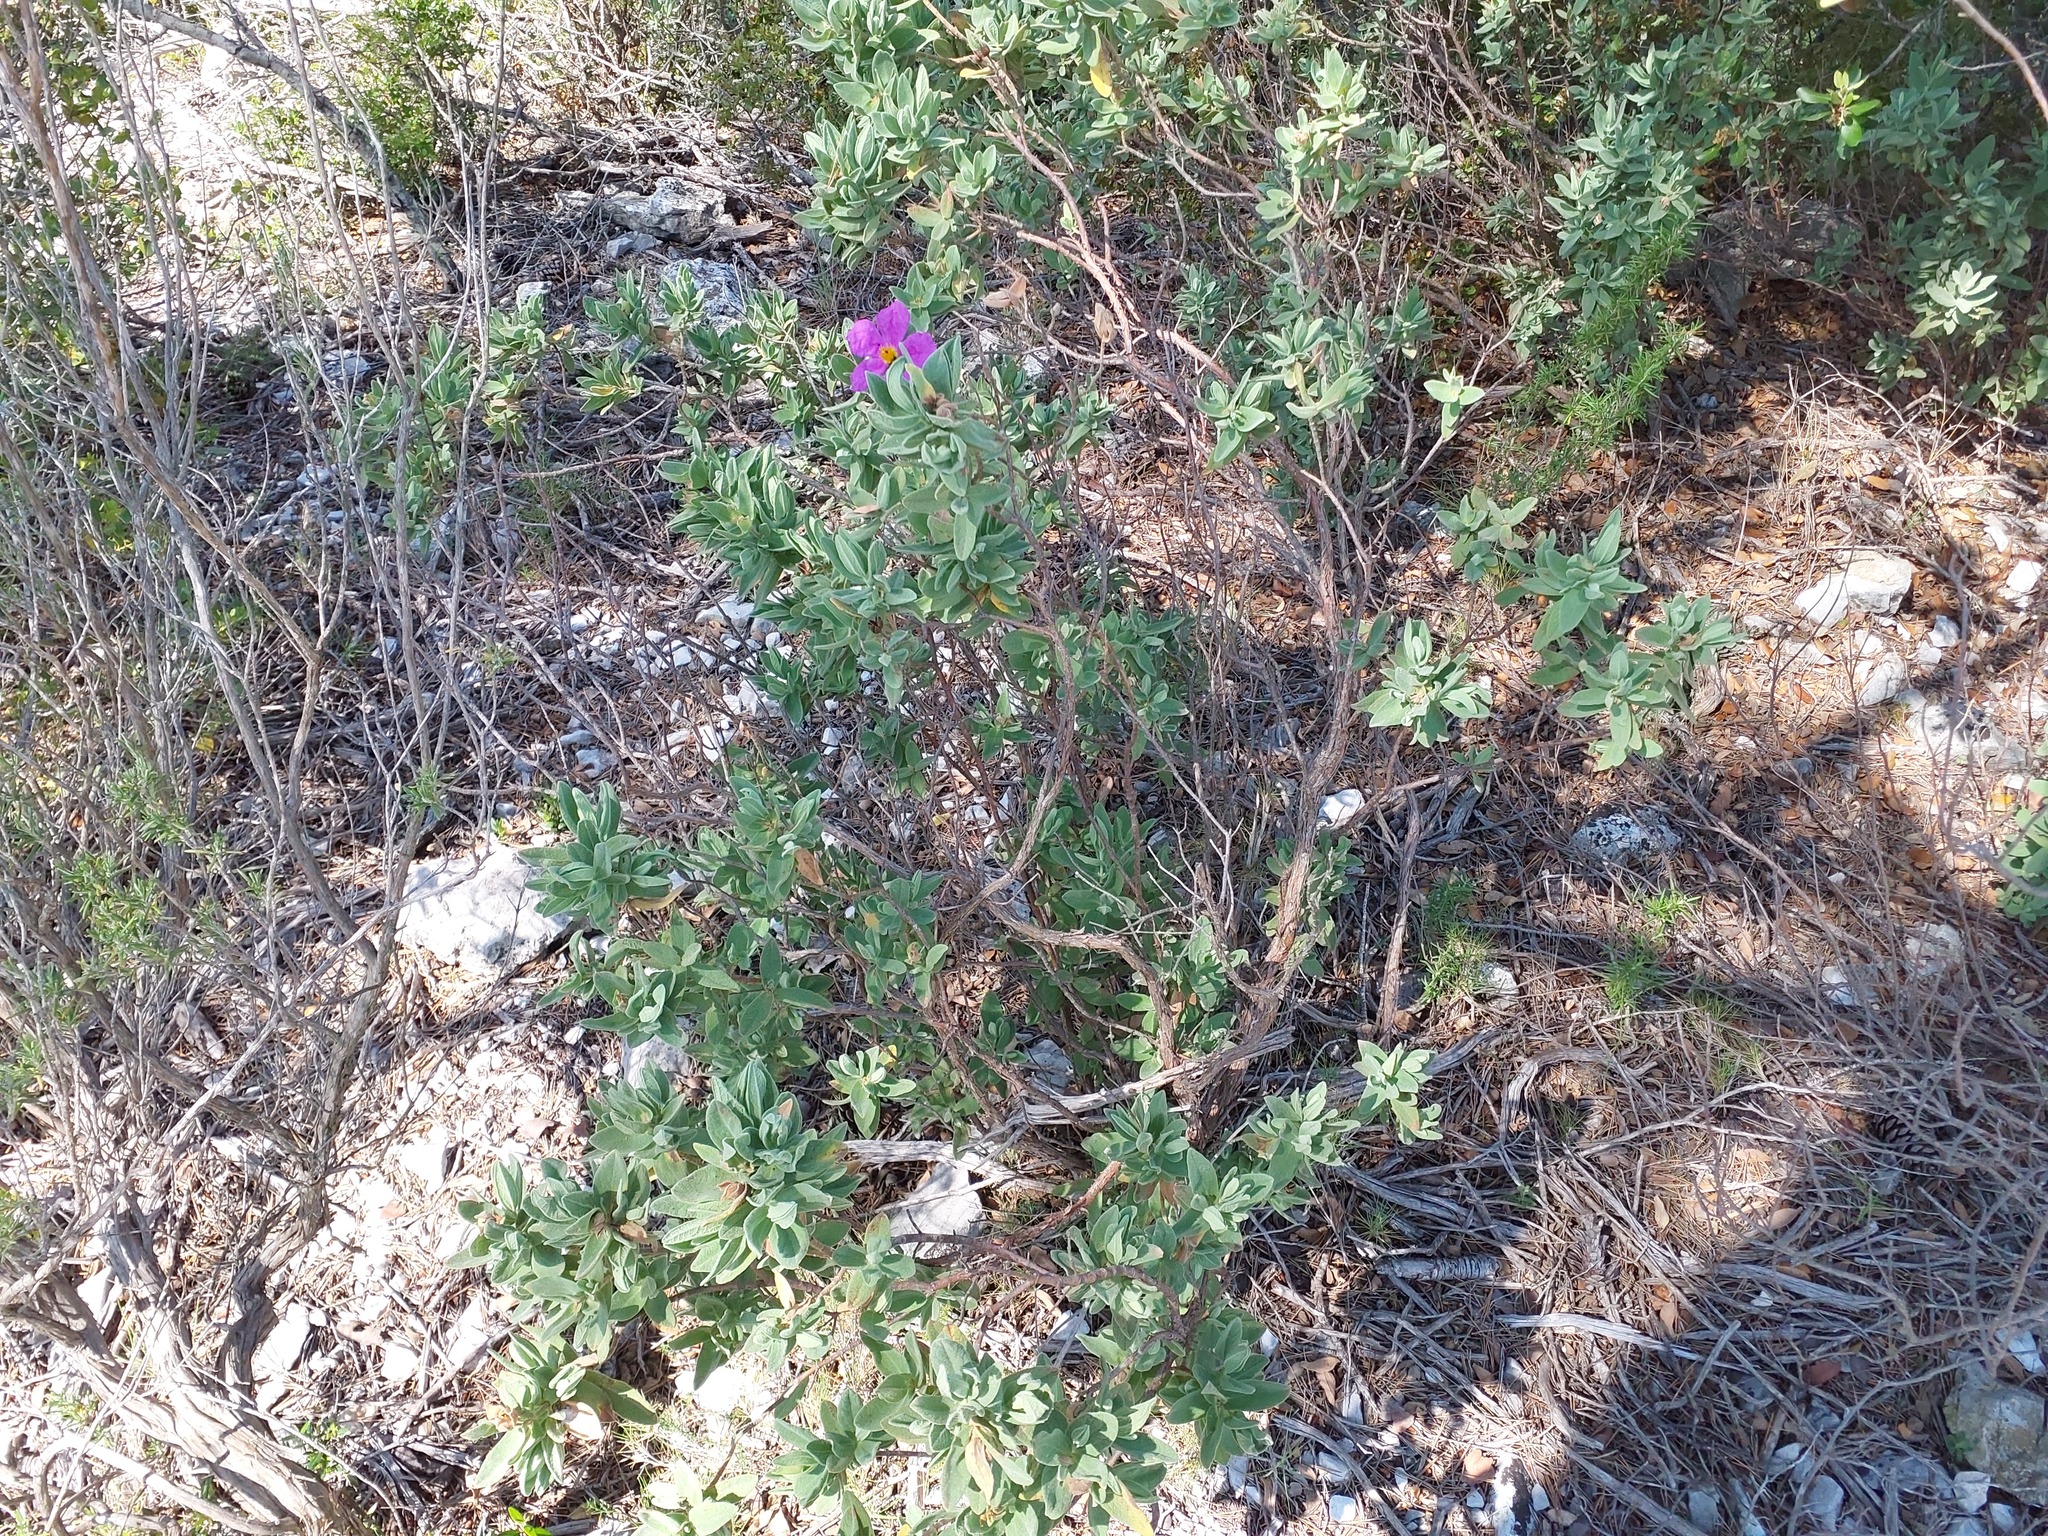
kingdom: Plantae
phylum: Tracheophyta
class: Magnoliopsida
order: Malvales
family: Cistaceae
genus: Cistus
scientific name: Cistus albidus
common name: White-leaf rock-rose
